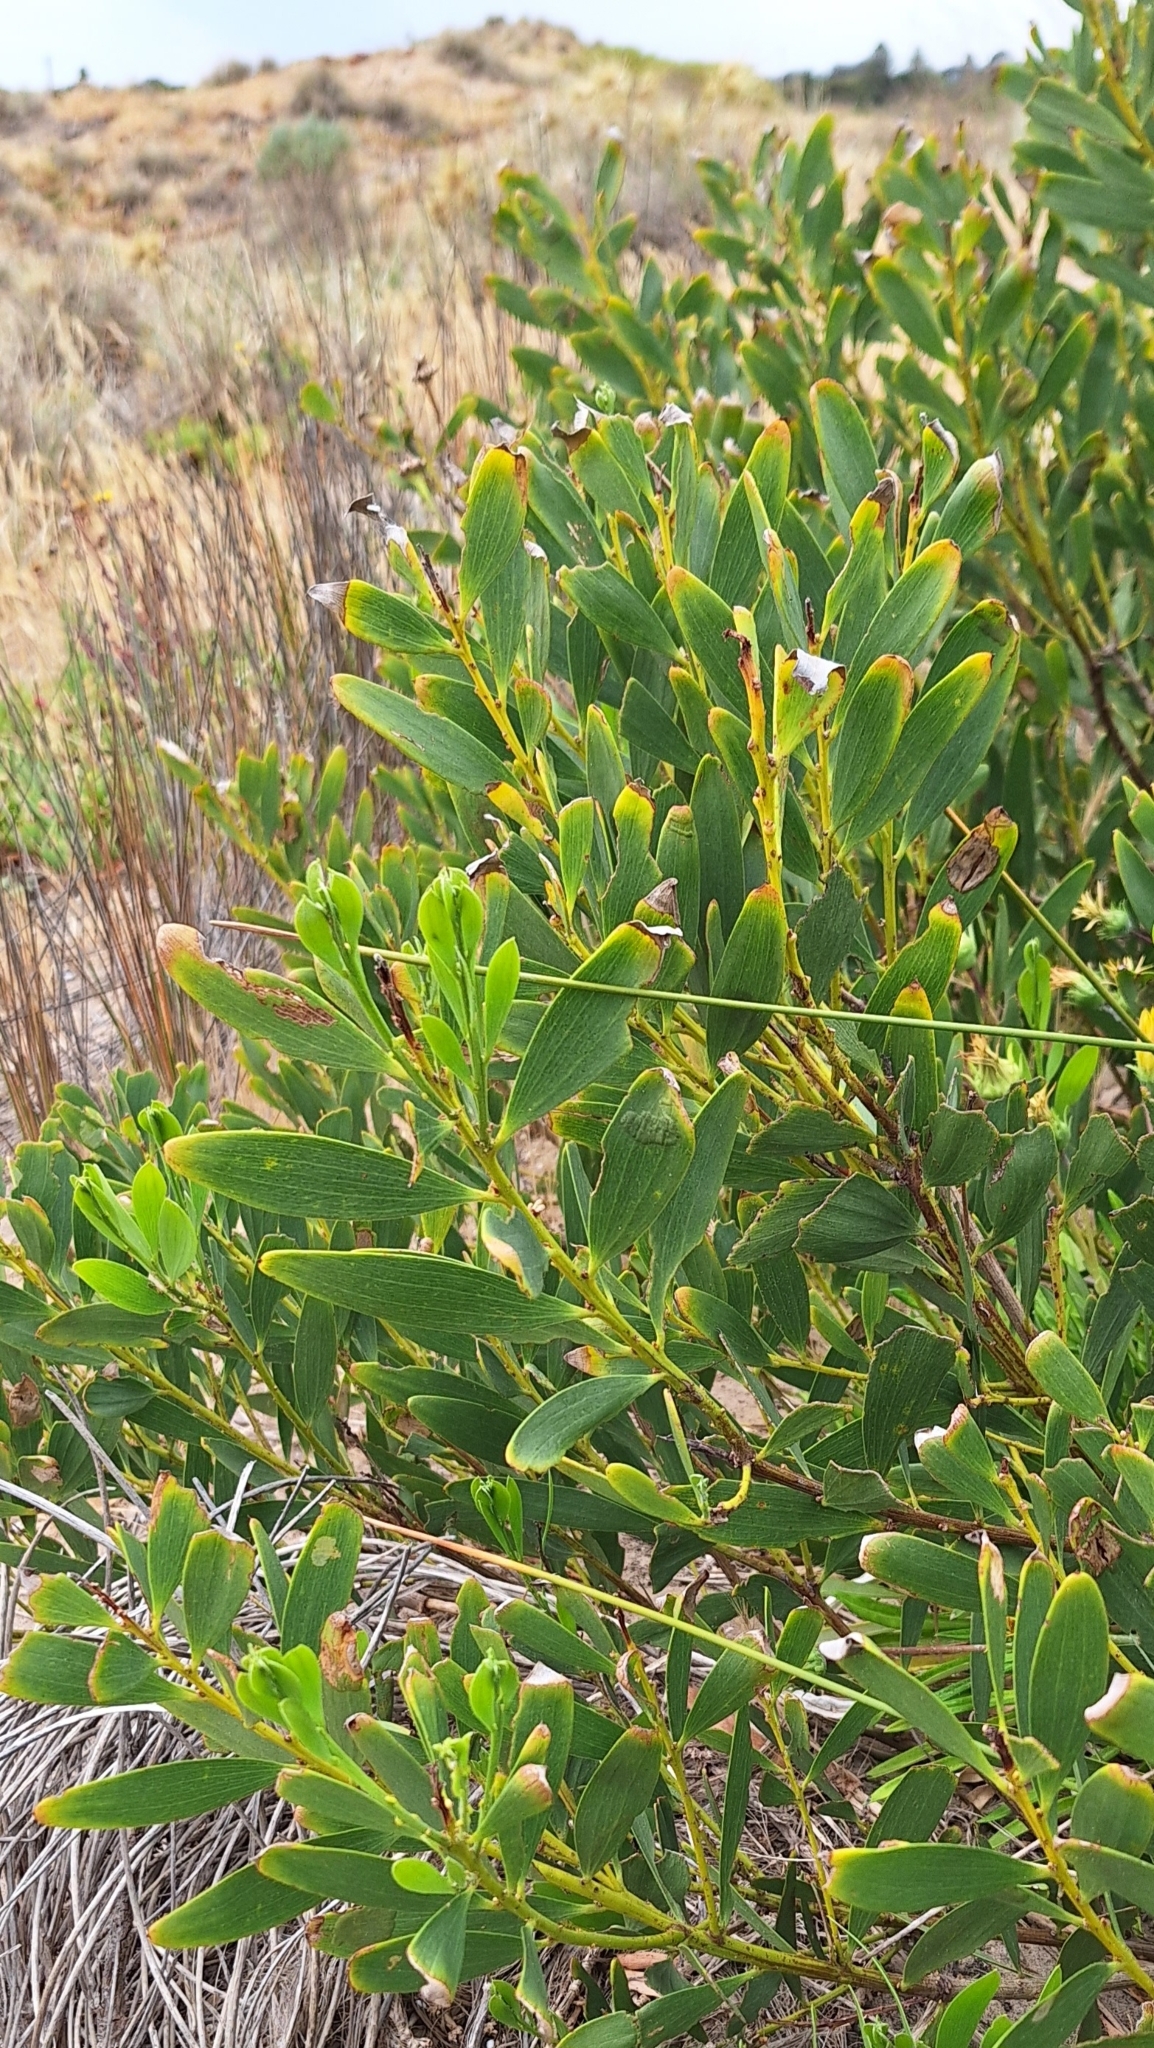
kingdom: Plantae
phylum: Tracheophyta
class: Magnoliopsida
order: Fabales
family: Fabaceae
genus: Acacia
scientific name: Acacia longifolia
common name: Sydney golden wattle
